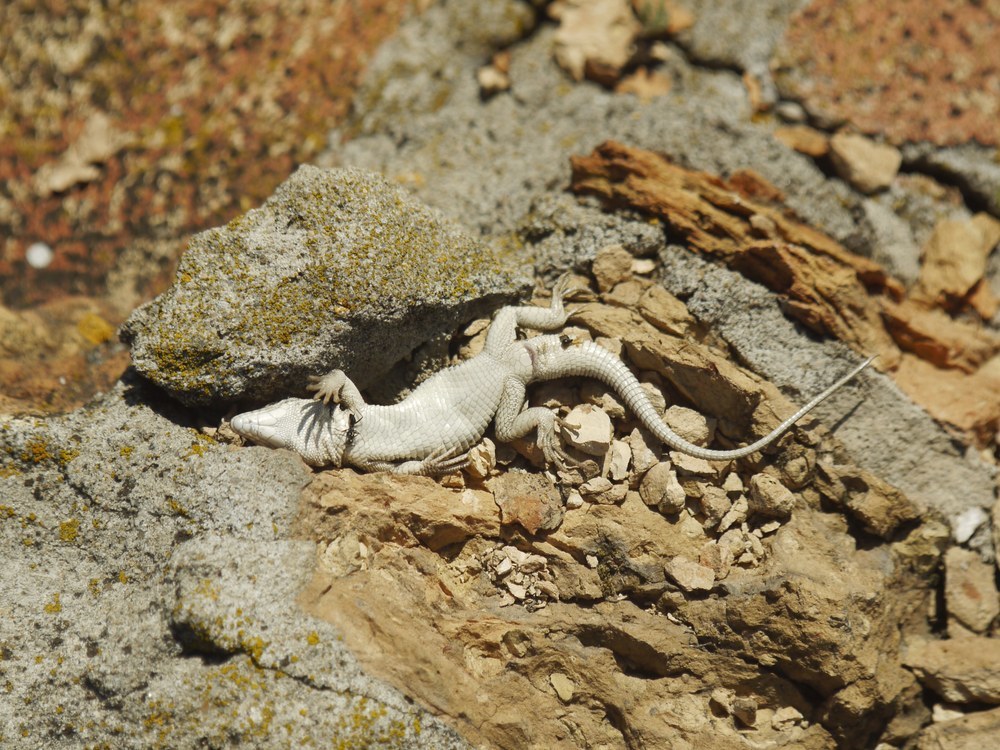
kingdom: Animalia
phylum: Chordata
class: Squamata
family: Lacertidae
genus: Eremias
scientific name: Eremias arguta
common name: Racerunner
